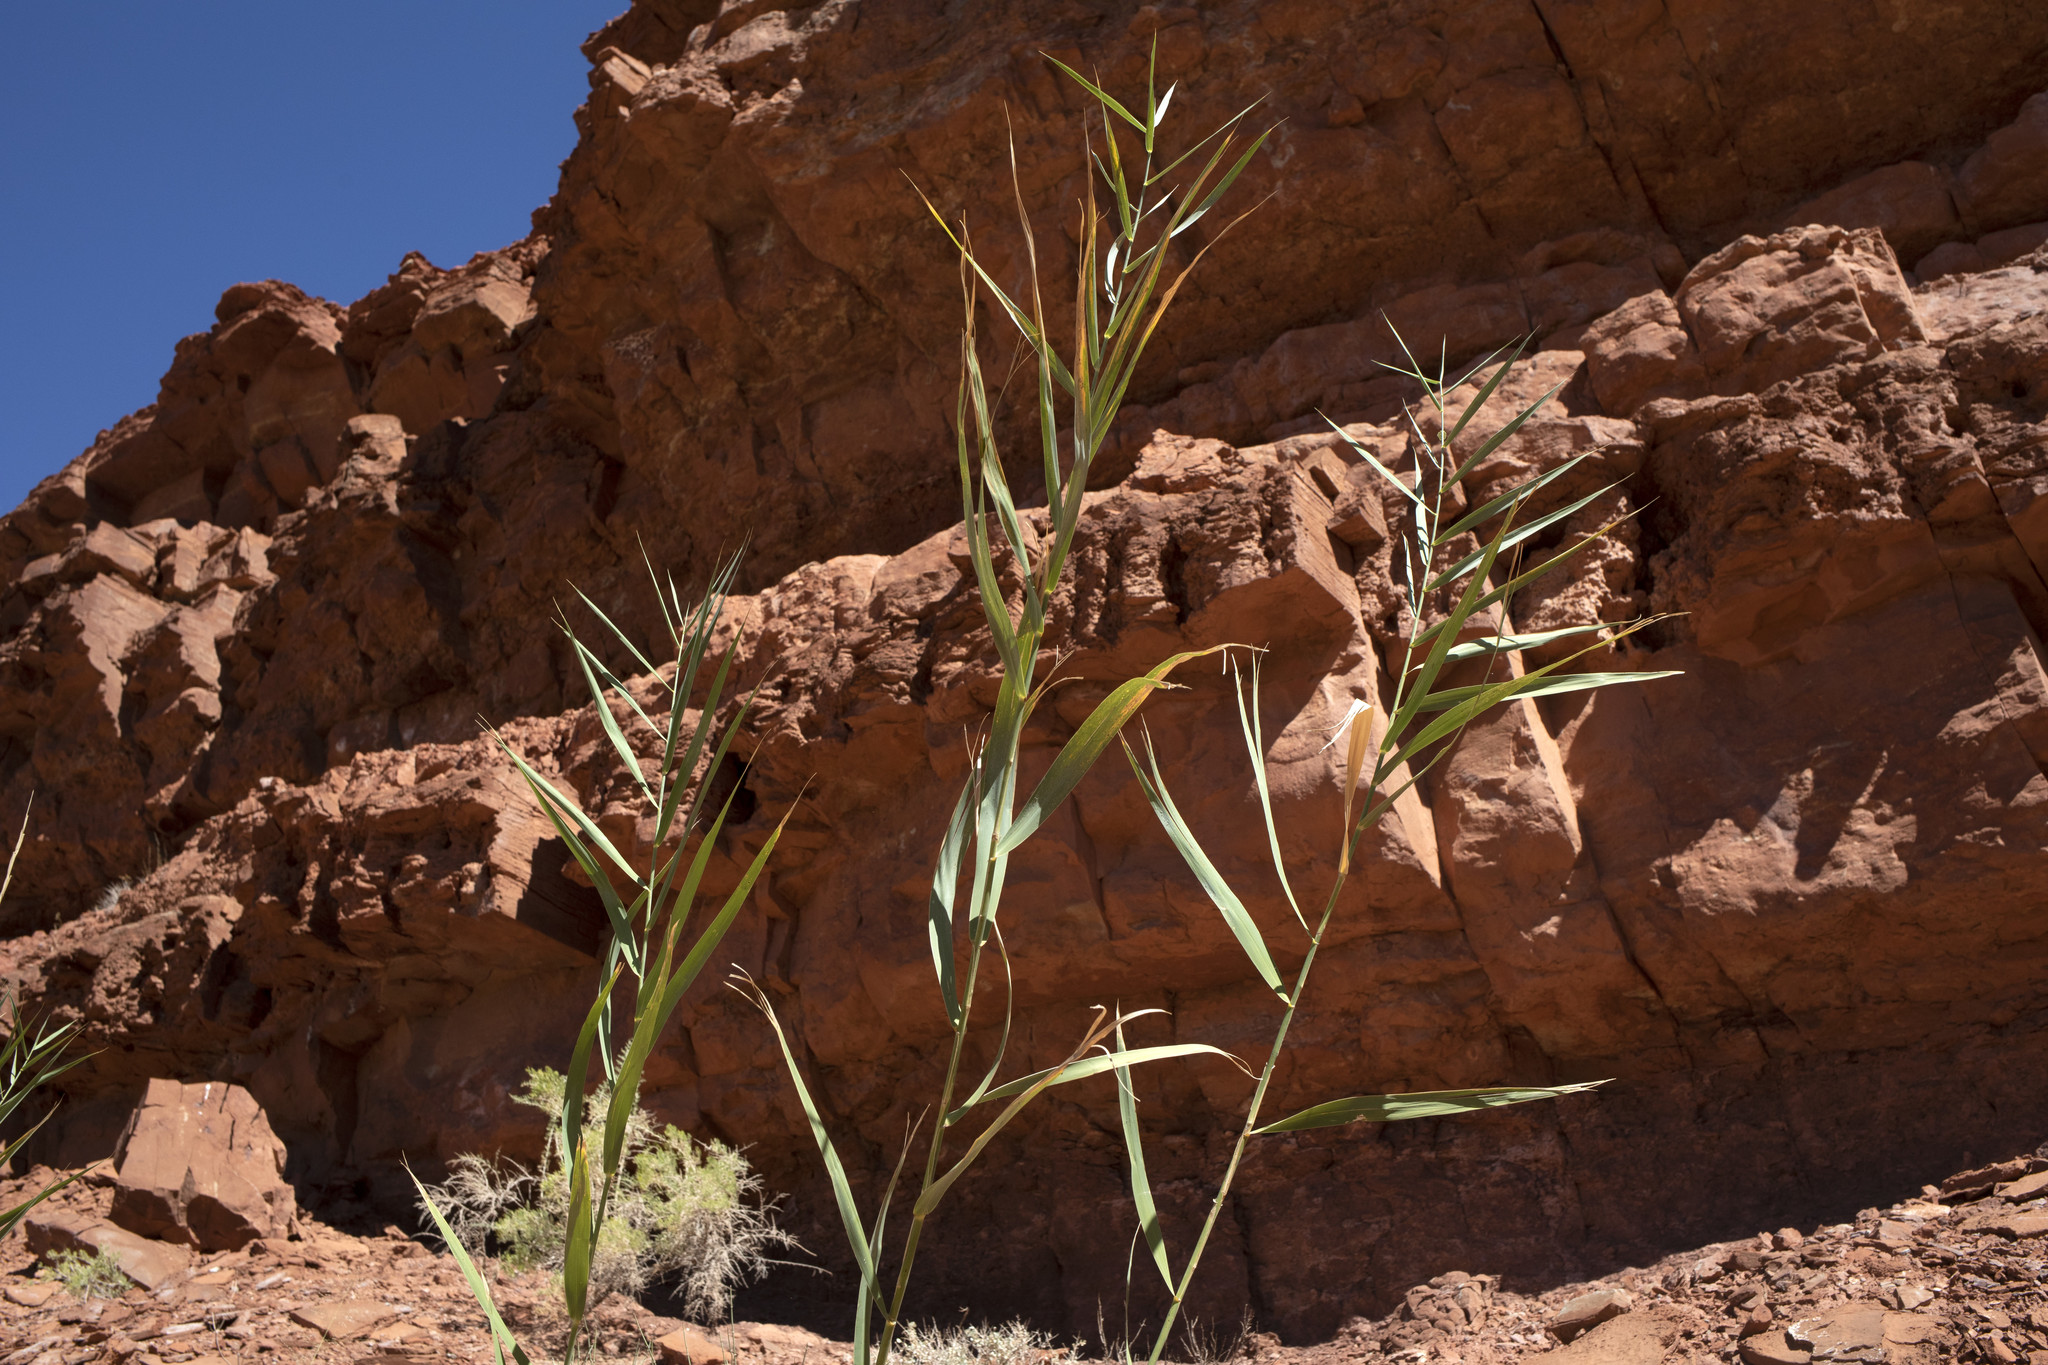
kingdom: Plantae
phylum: Tracheophyta
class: Liliopsida
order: Poales
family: Poaceae
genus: Phragmites
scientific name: Phragmites australis
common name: Common reed
